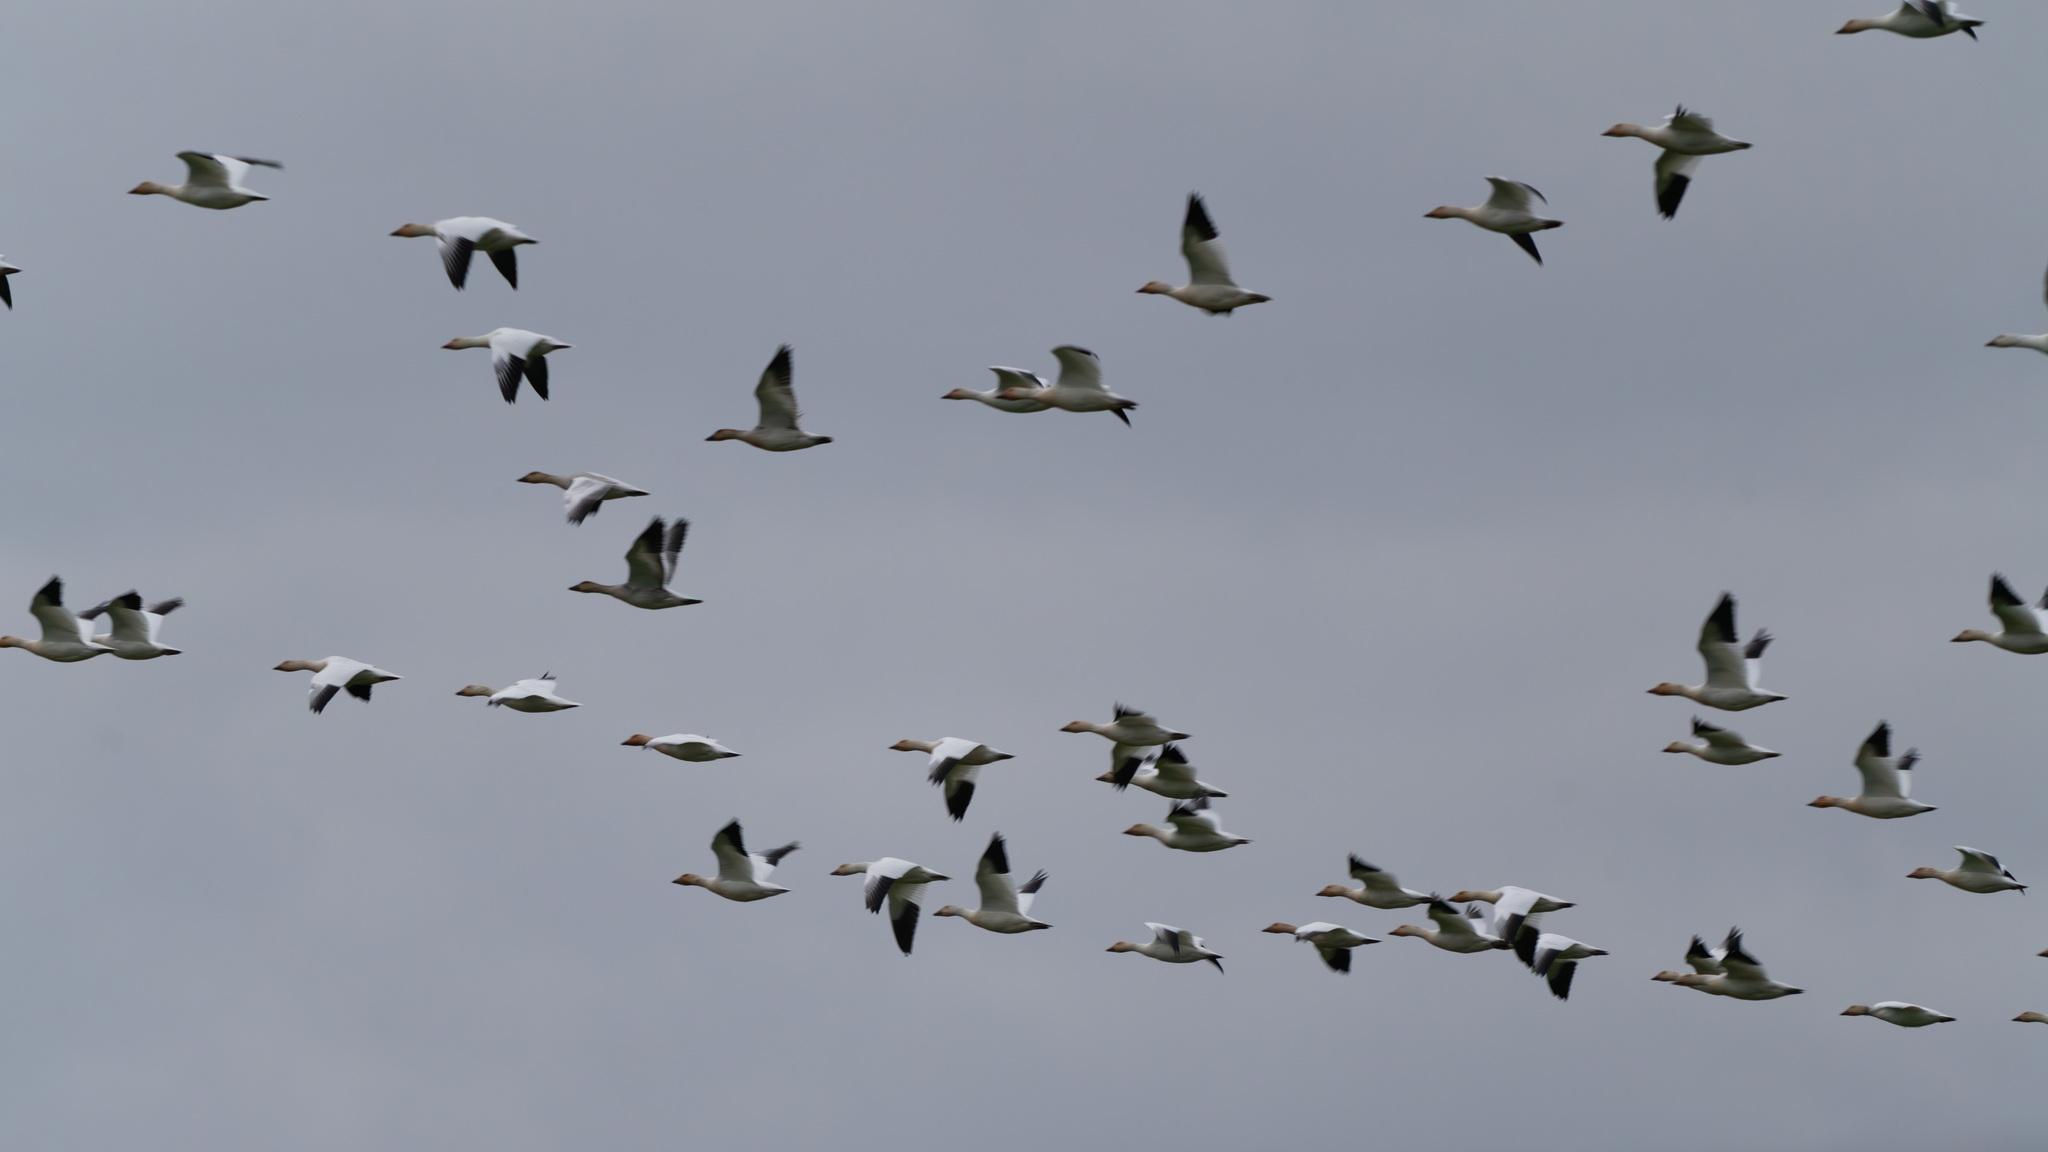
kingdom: Animalia
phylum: Chordata
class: Aves
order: Anseriformes
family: Anatidae
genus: Anser
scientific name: Anser caerulescens
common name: Snow goose
